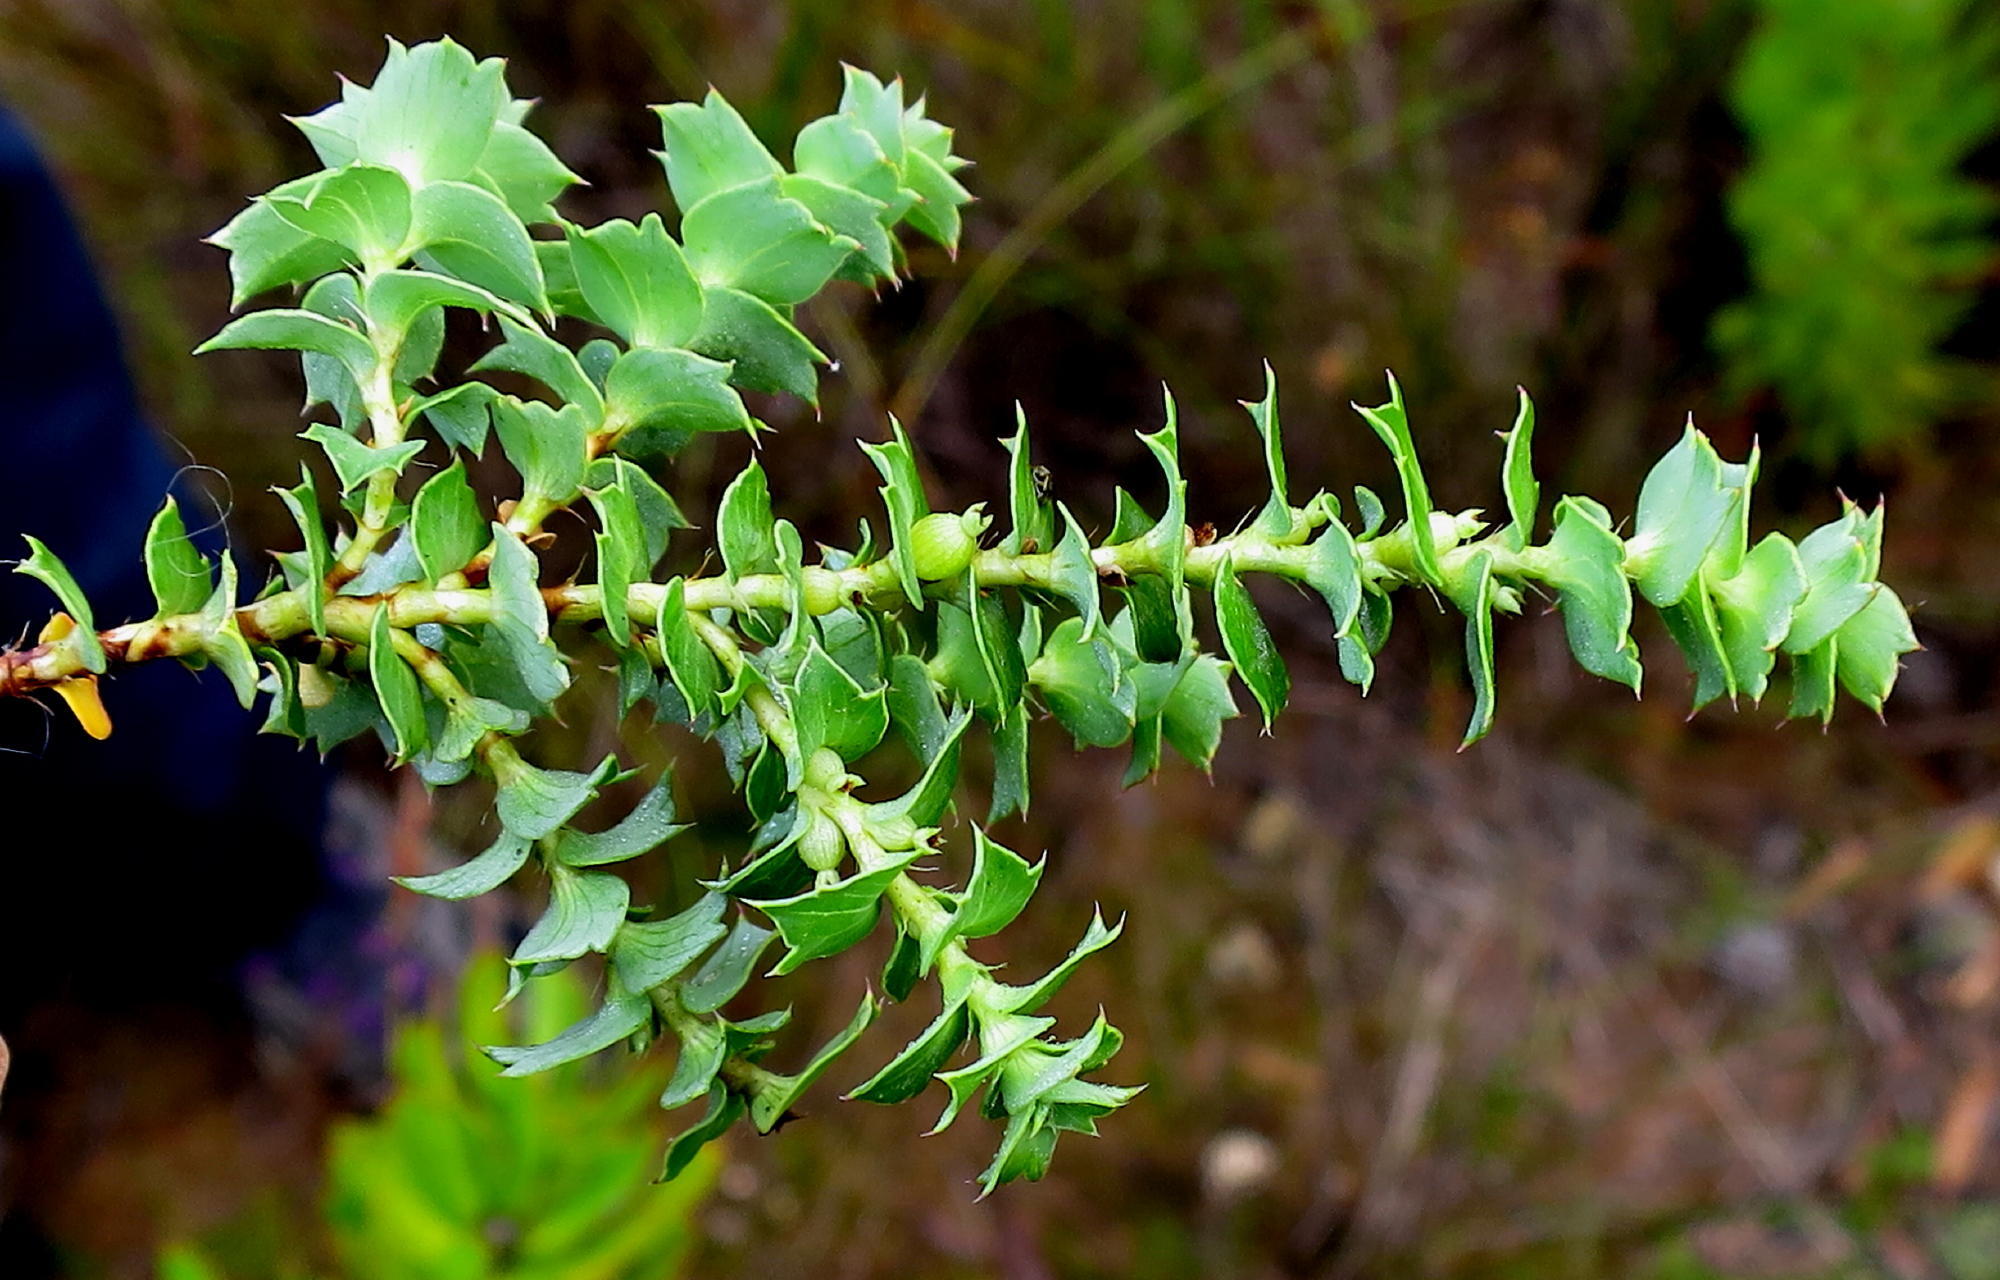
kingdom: Plantae
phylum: Tracheophyta
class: Magnoliopsida
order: Rosales
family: Rosaceae
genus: Cliffortia
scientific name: Cliffortia schlechteri
